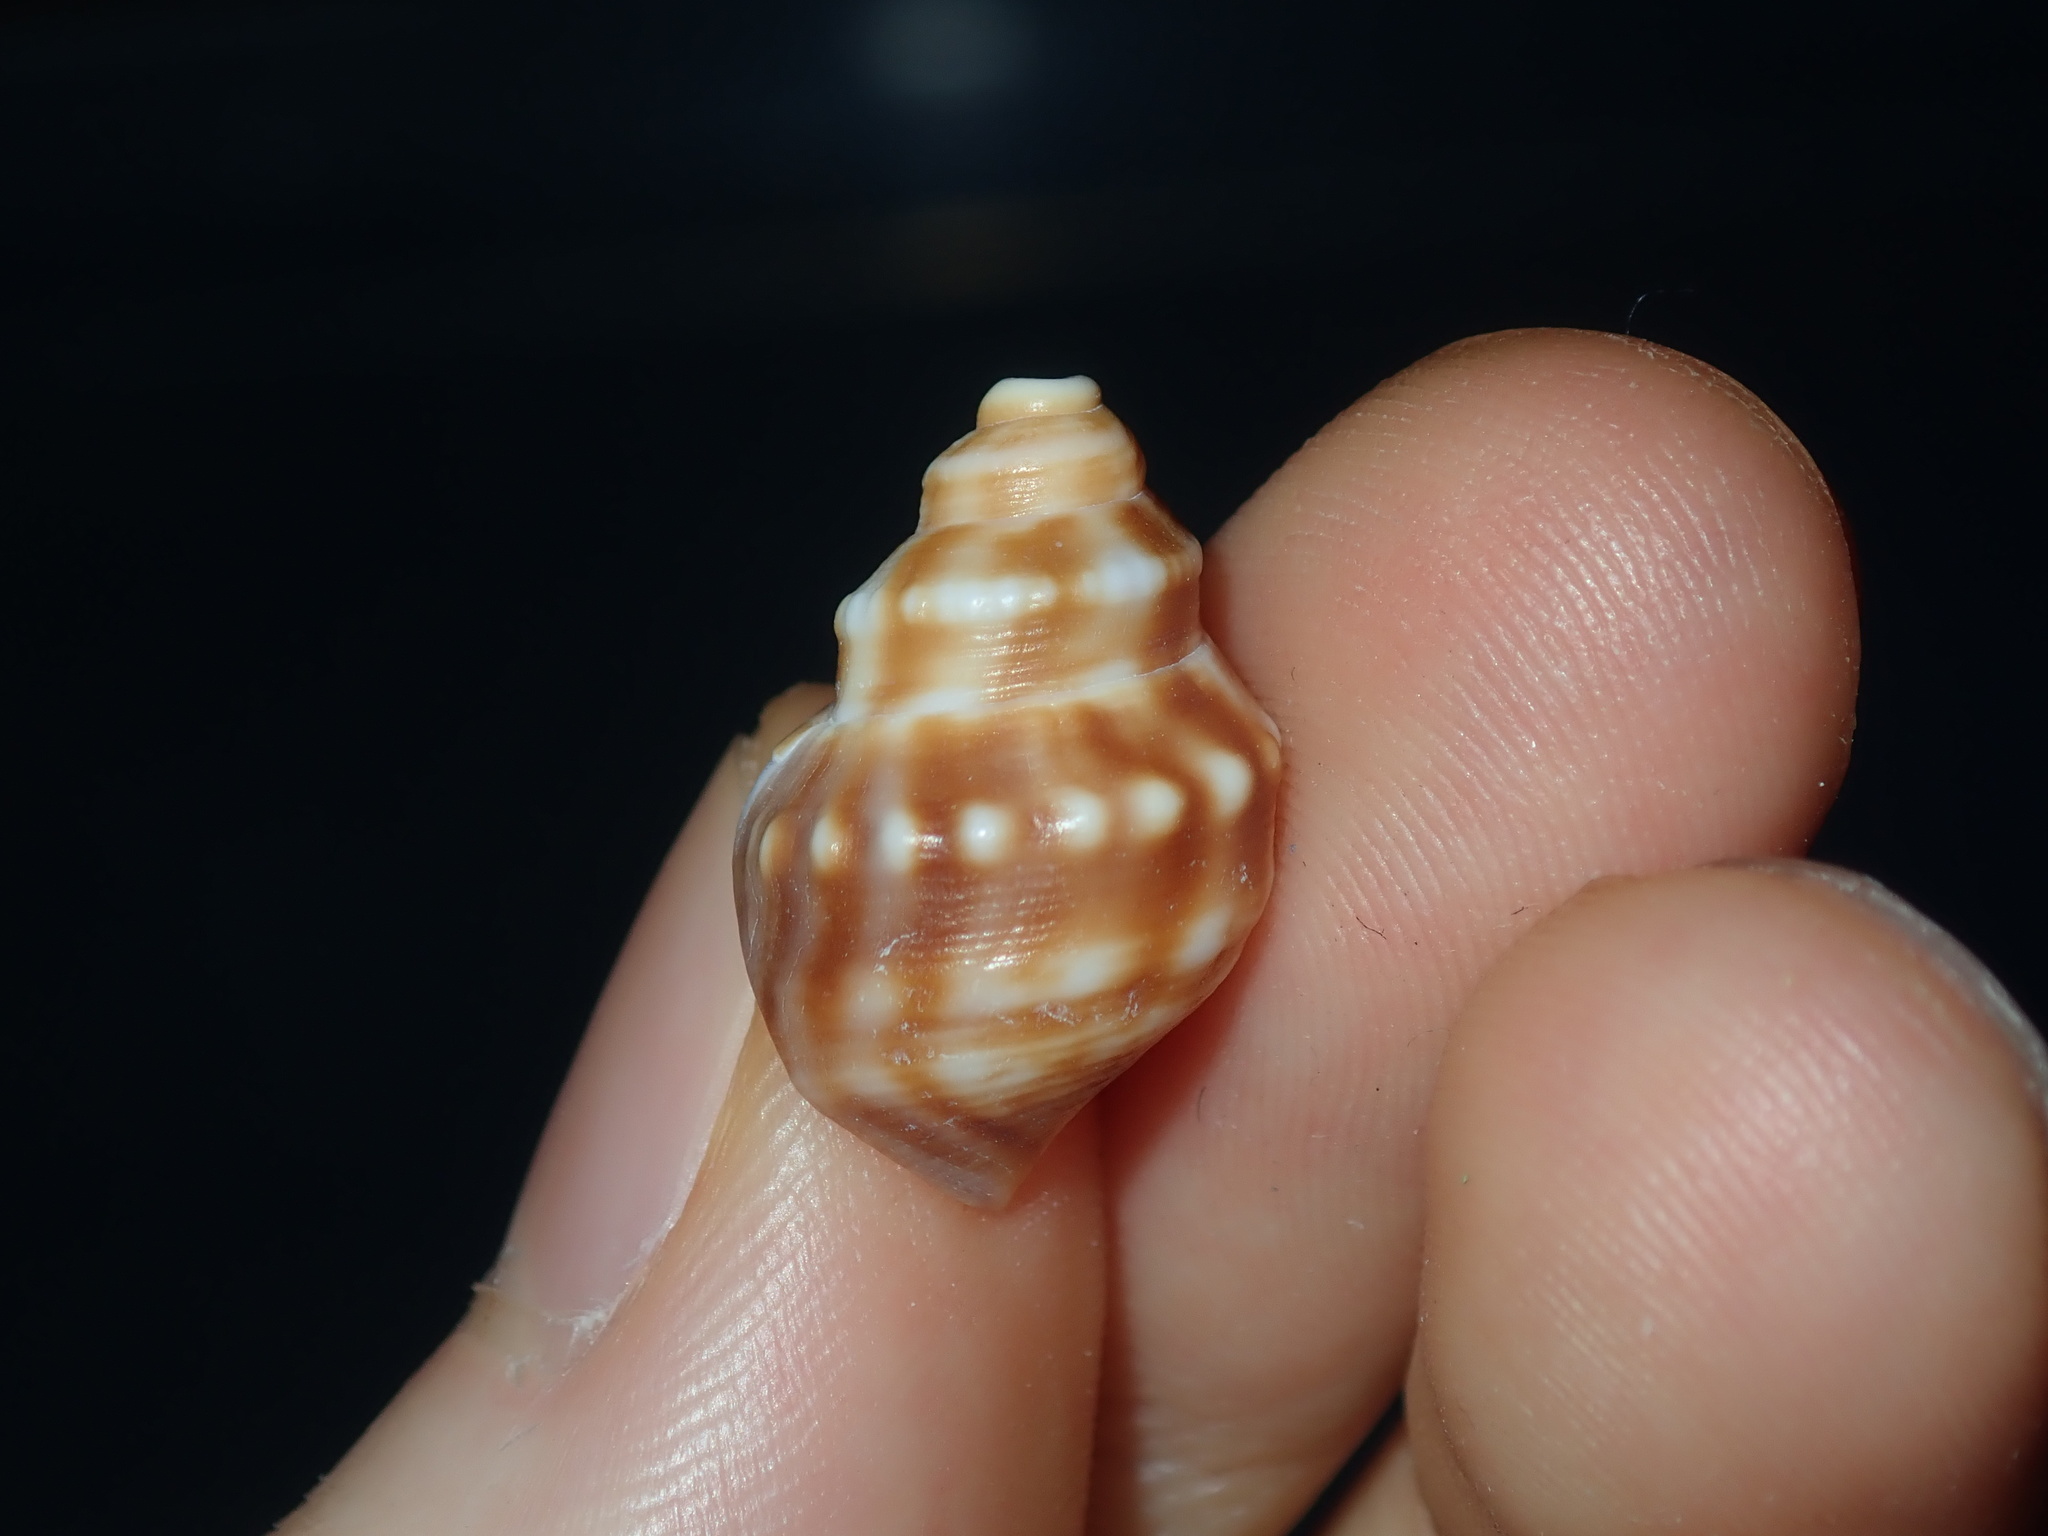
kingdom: Animalia
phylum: Mollusca
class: Gastropoda
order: Littorinimorpha
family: Struthiolariidae
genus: Tylospira
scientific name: Tylospira scutulata
